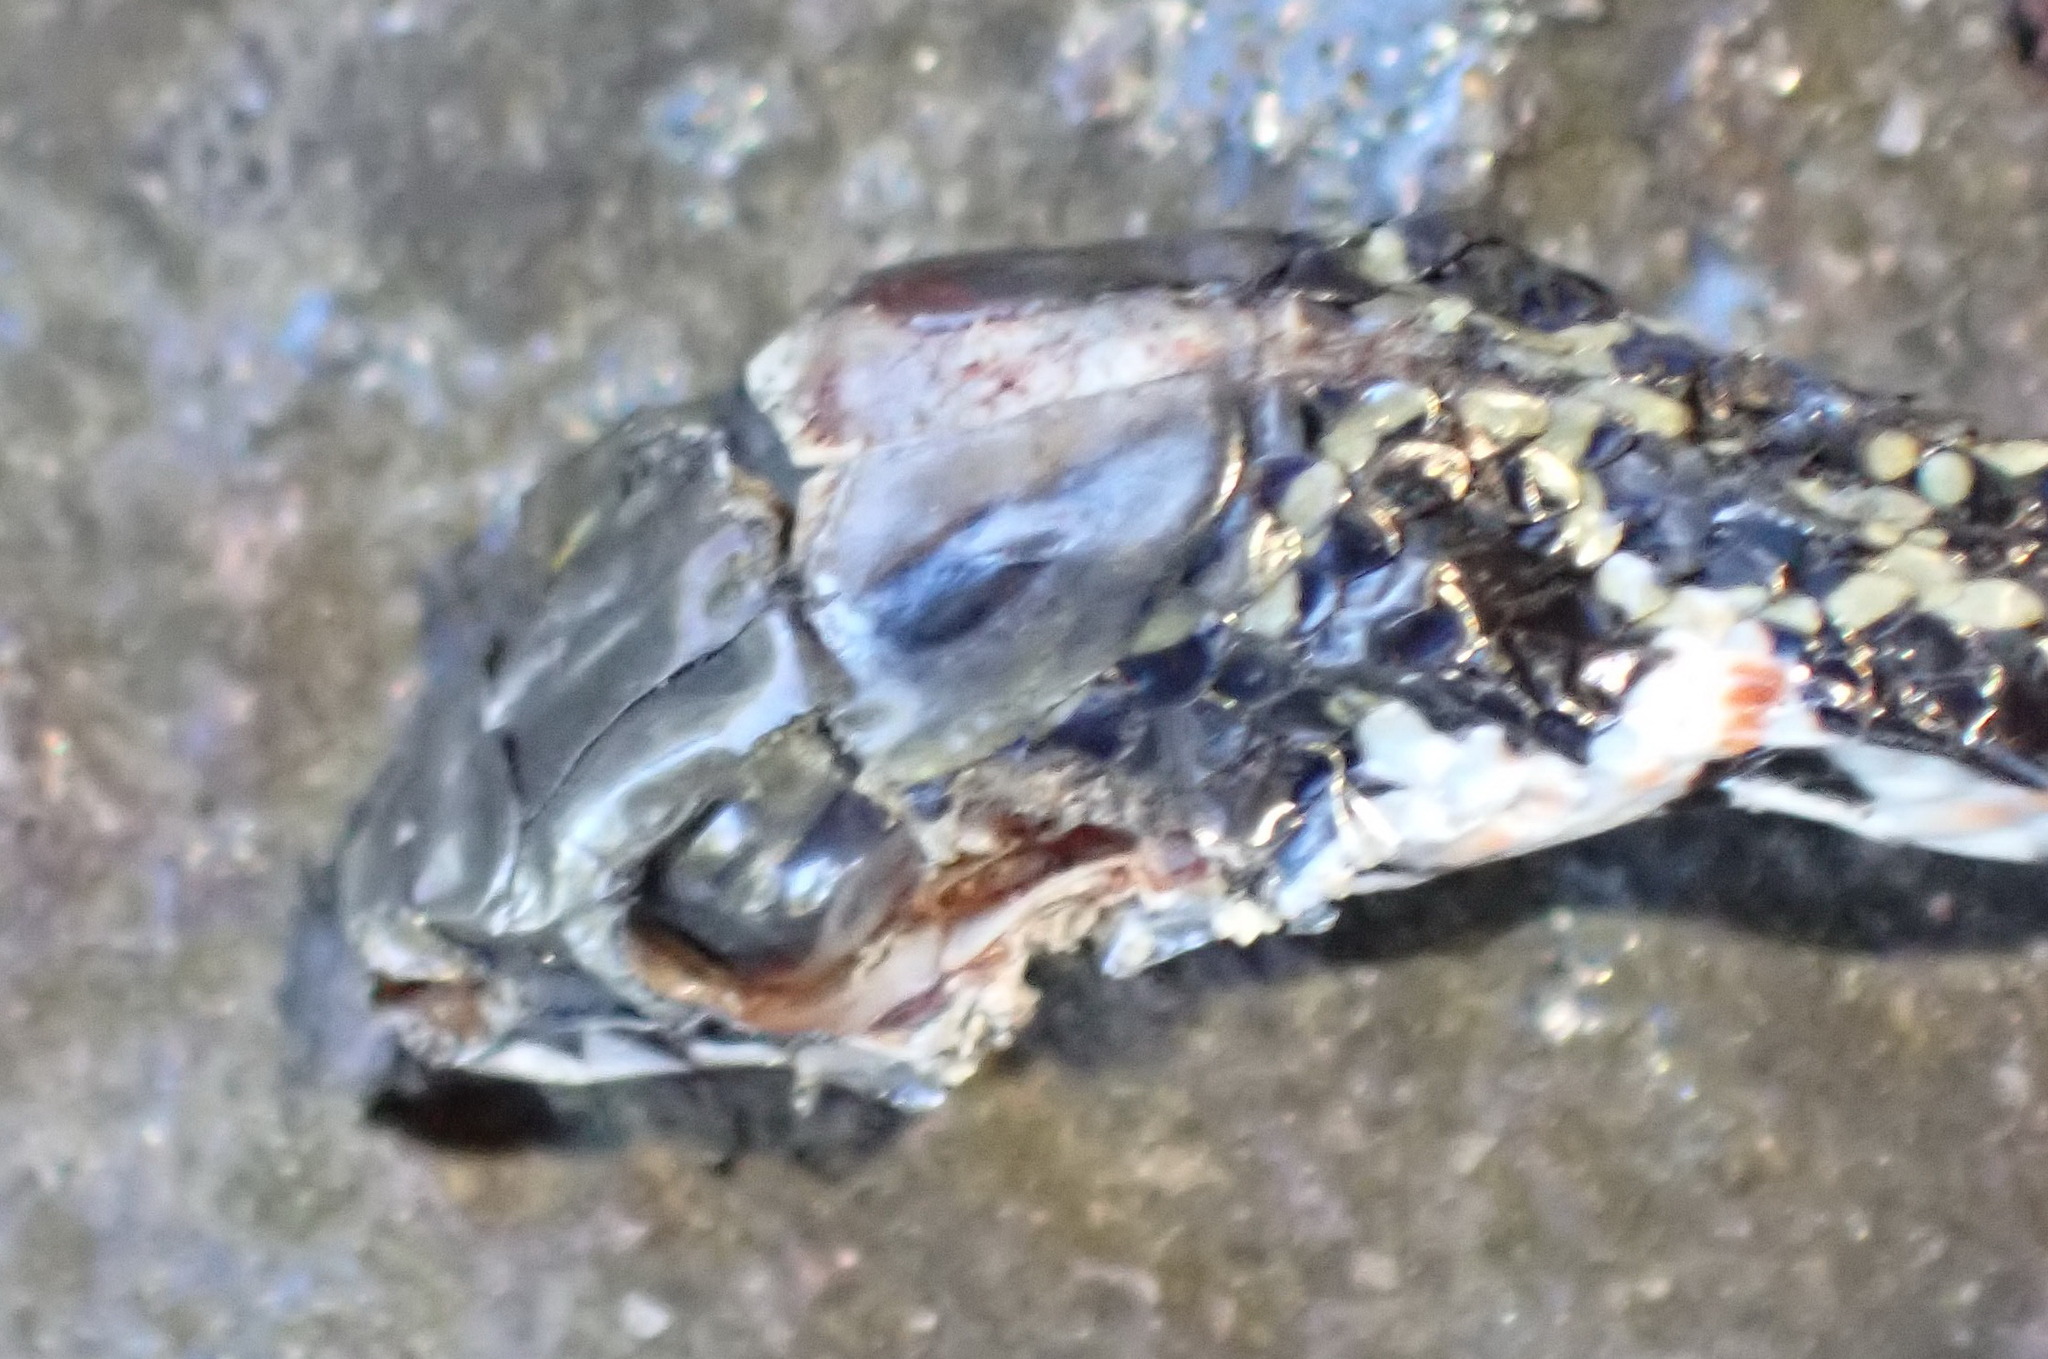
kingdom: Animalia
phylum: Chordata
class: Squamata
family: Psammophiidae
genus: Psammophylax
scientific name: Psammophylax rhombeatus
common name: Rhombic skaapsteker
